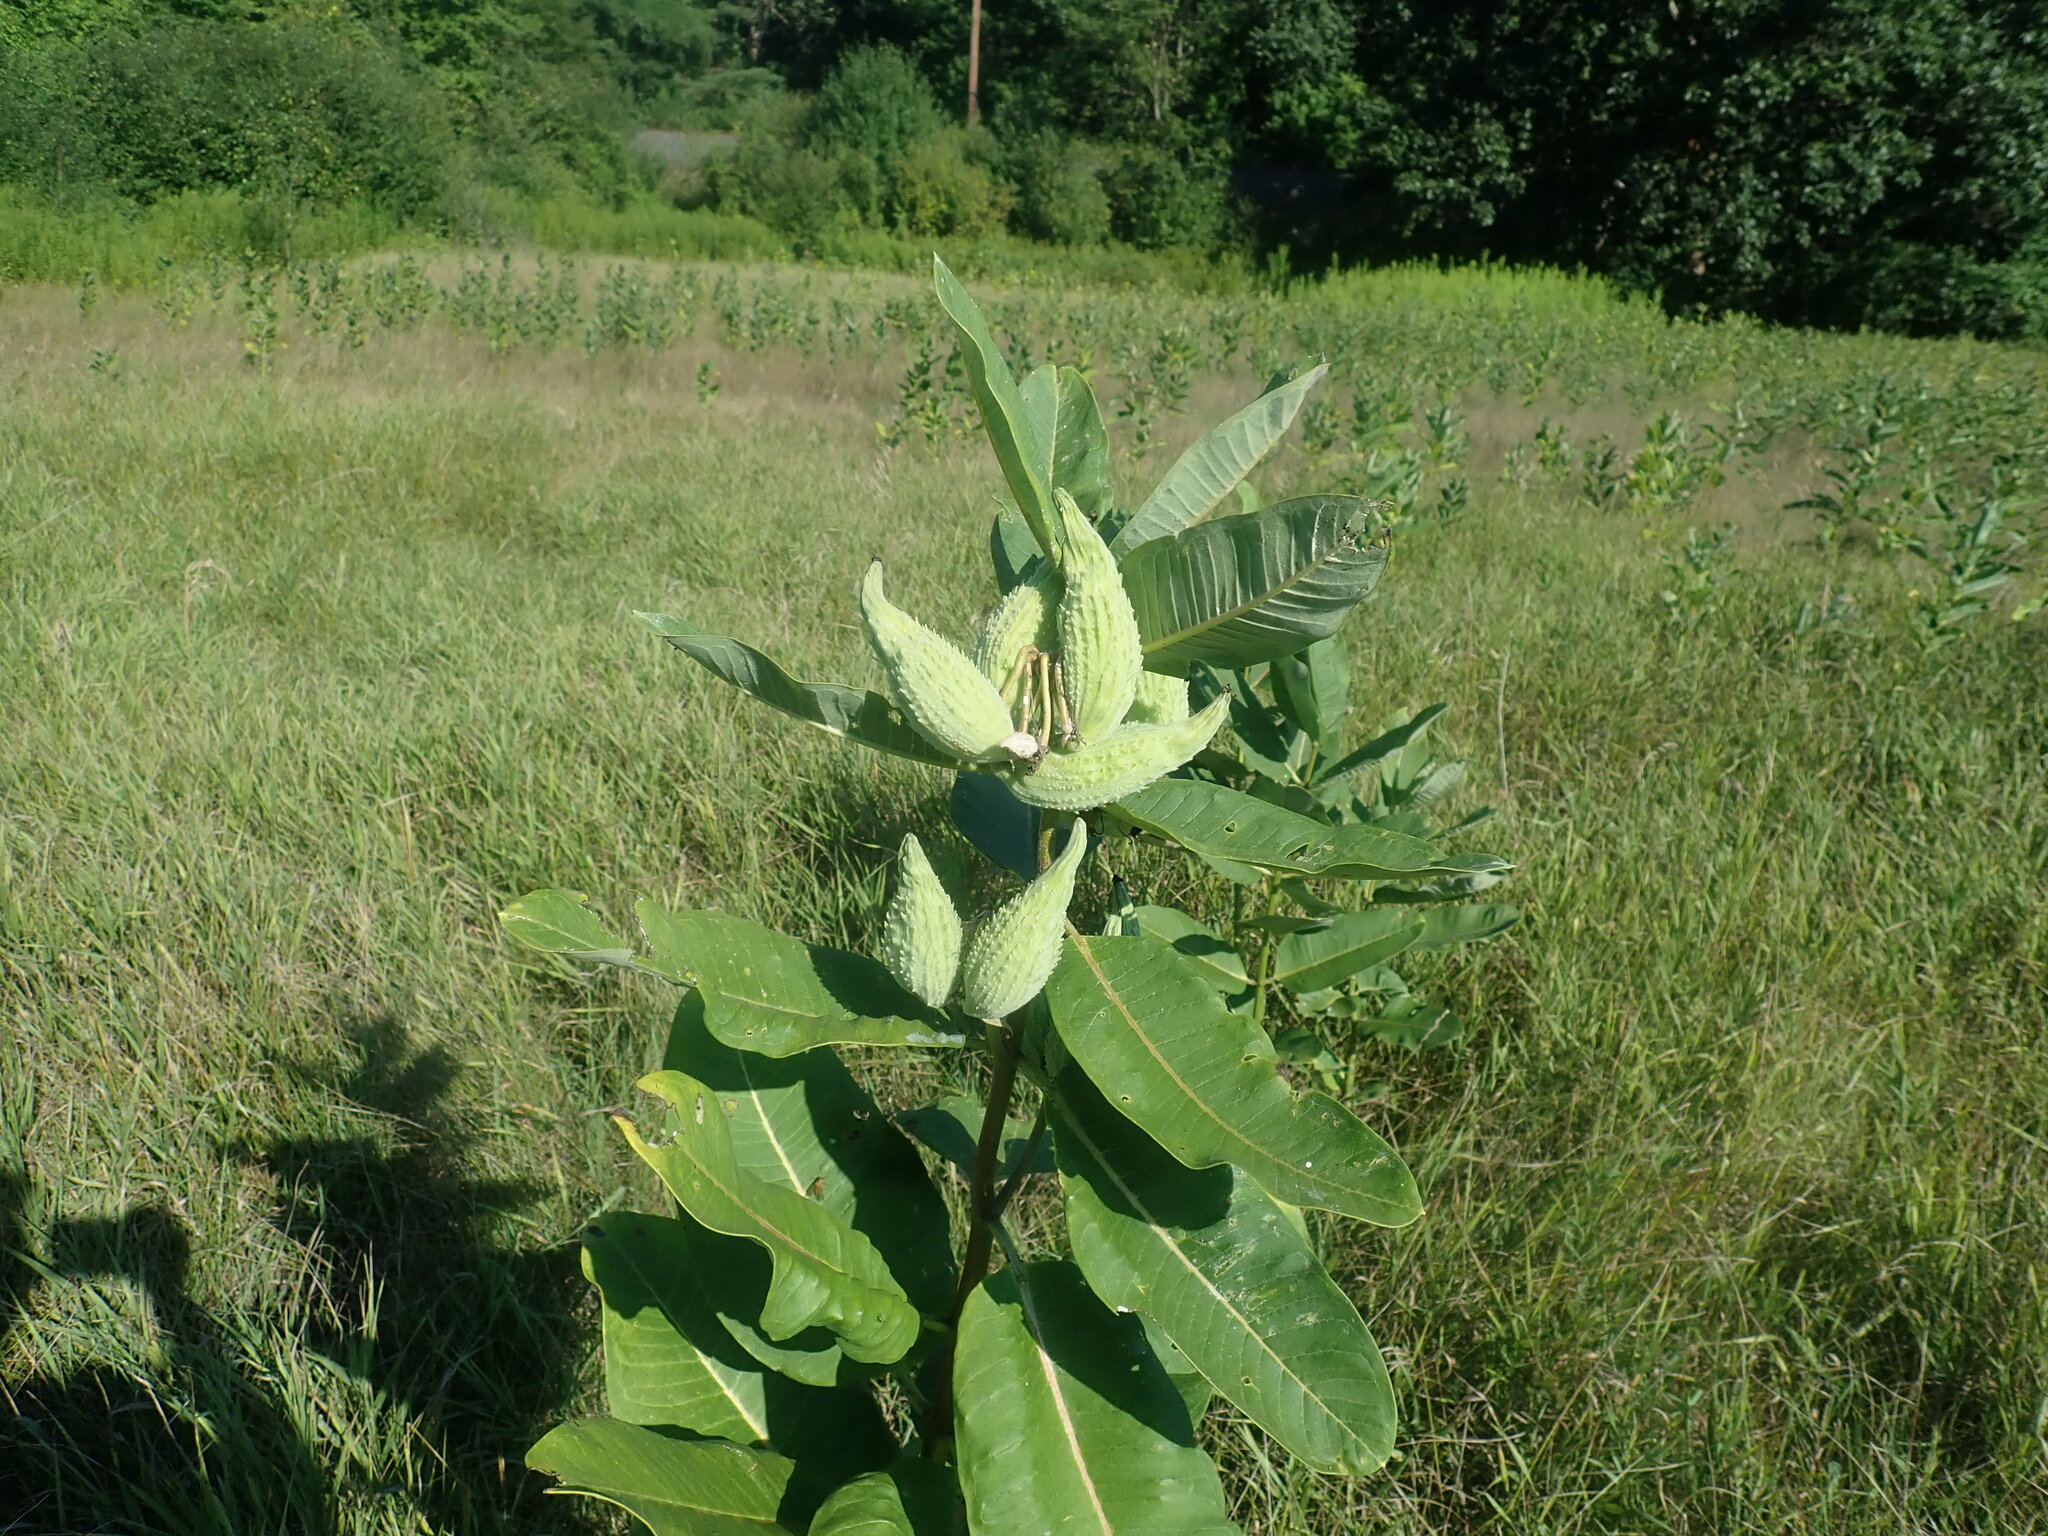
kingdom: Plantae
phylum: Tracheophyta
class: Magnoliopsida
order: Gentianales
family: Apocynaceae
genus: Asclepias
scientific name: Asclepias syriaca
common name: Common milkweed
